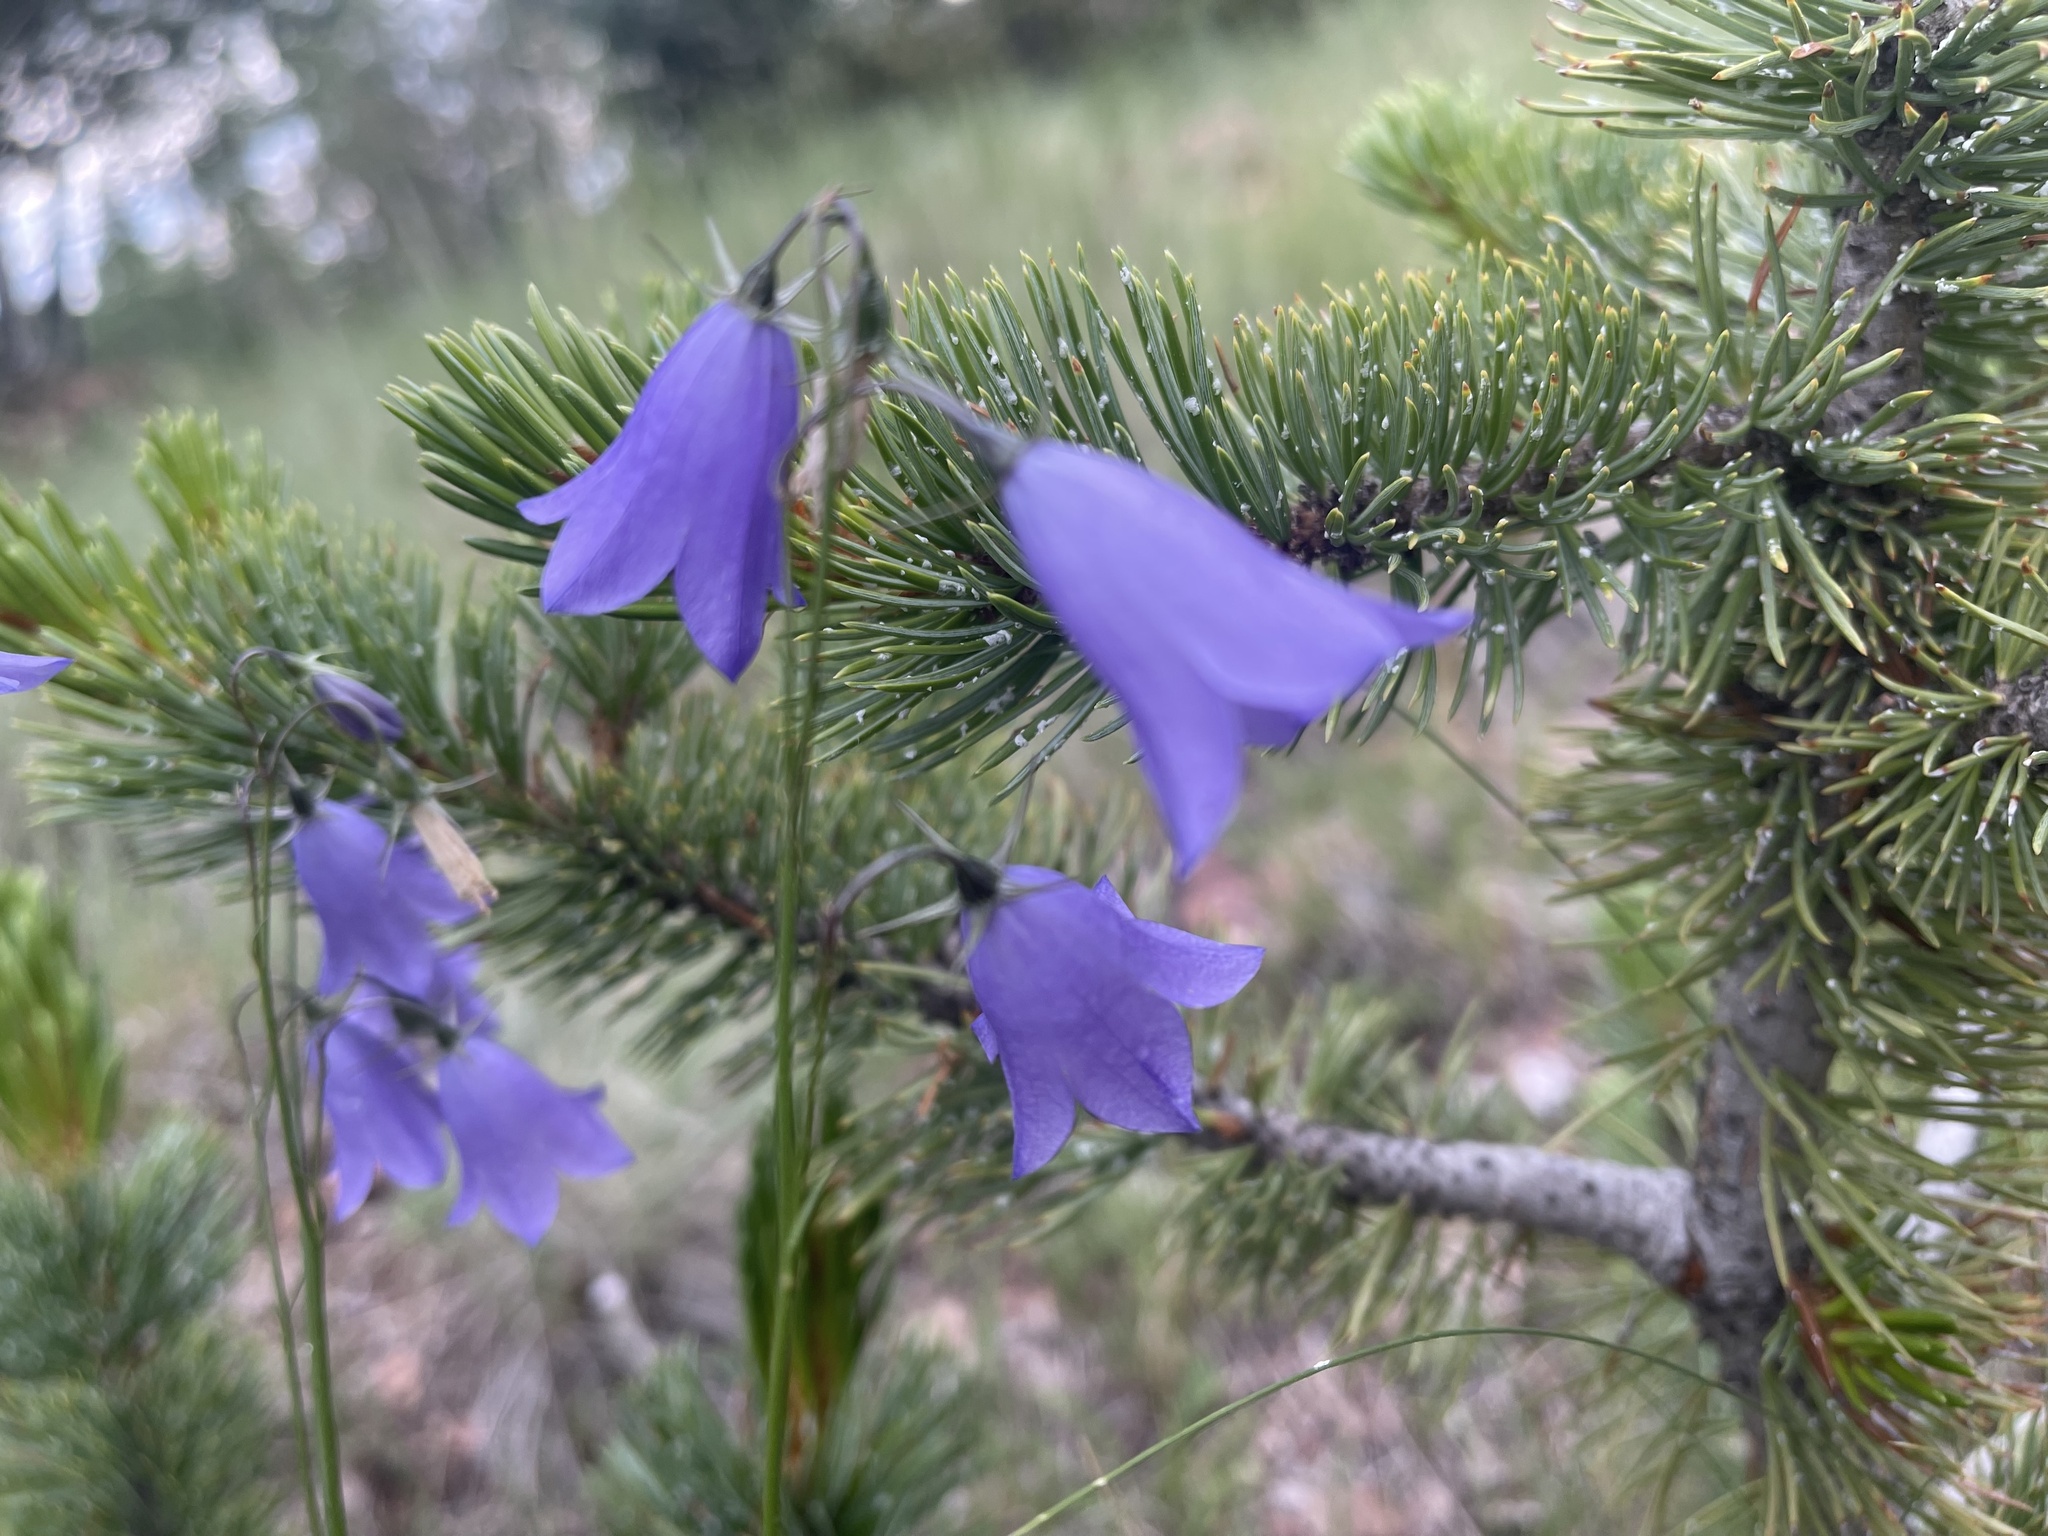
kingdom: Plantae
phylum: Tracheophyta
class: Magnoliopsida
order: Asterales
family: Campanulaceae
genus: Campanula
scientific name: Campanula petiolata
